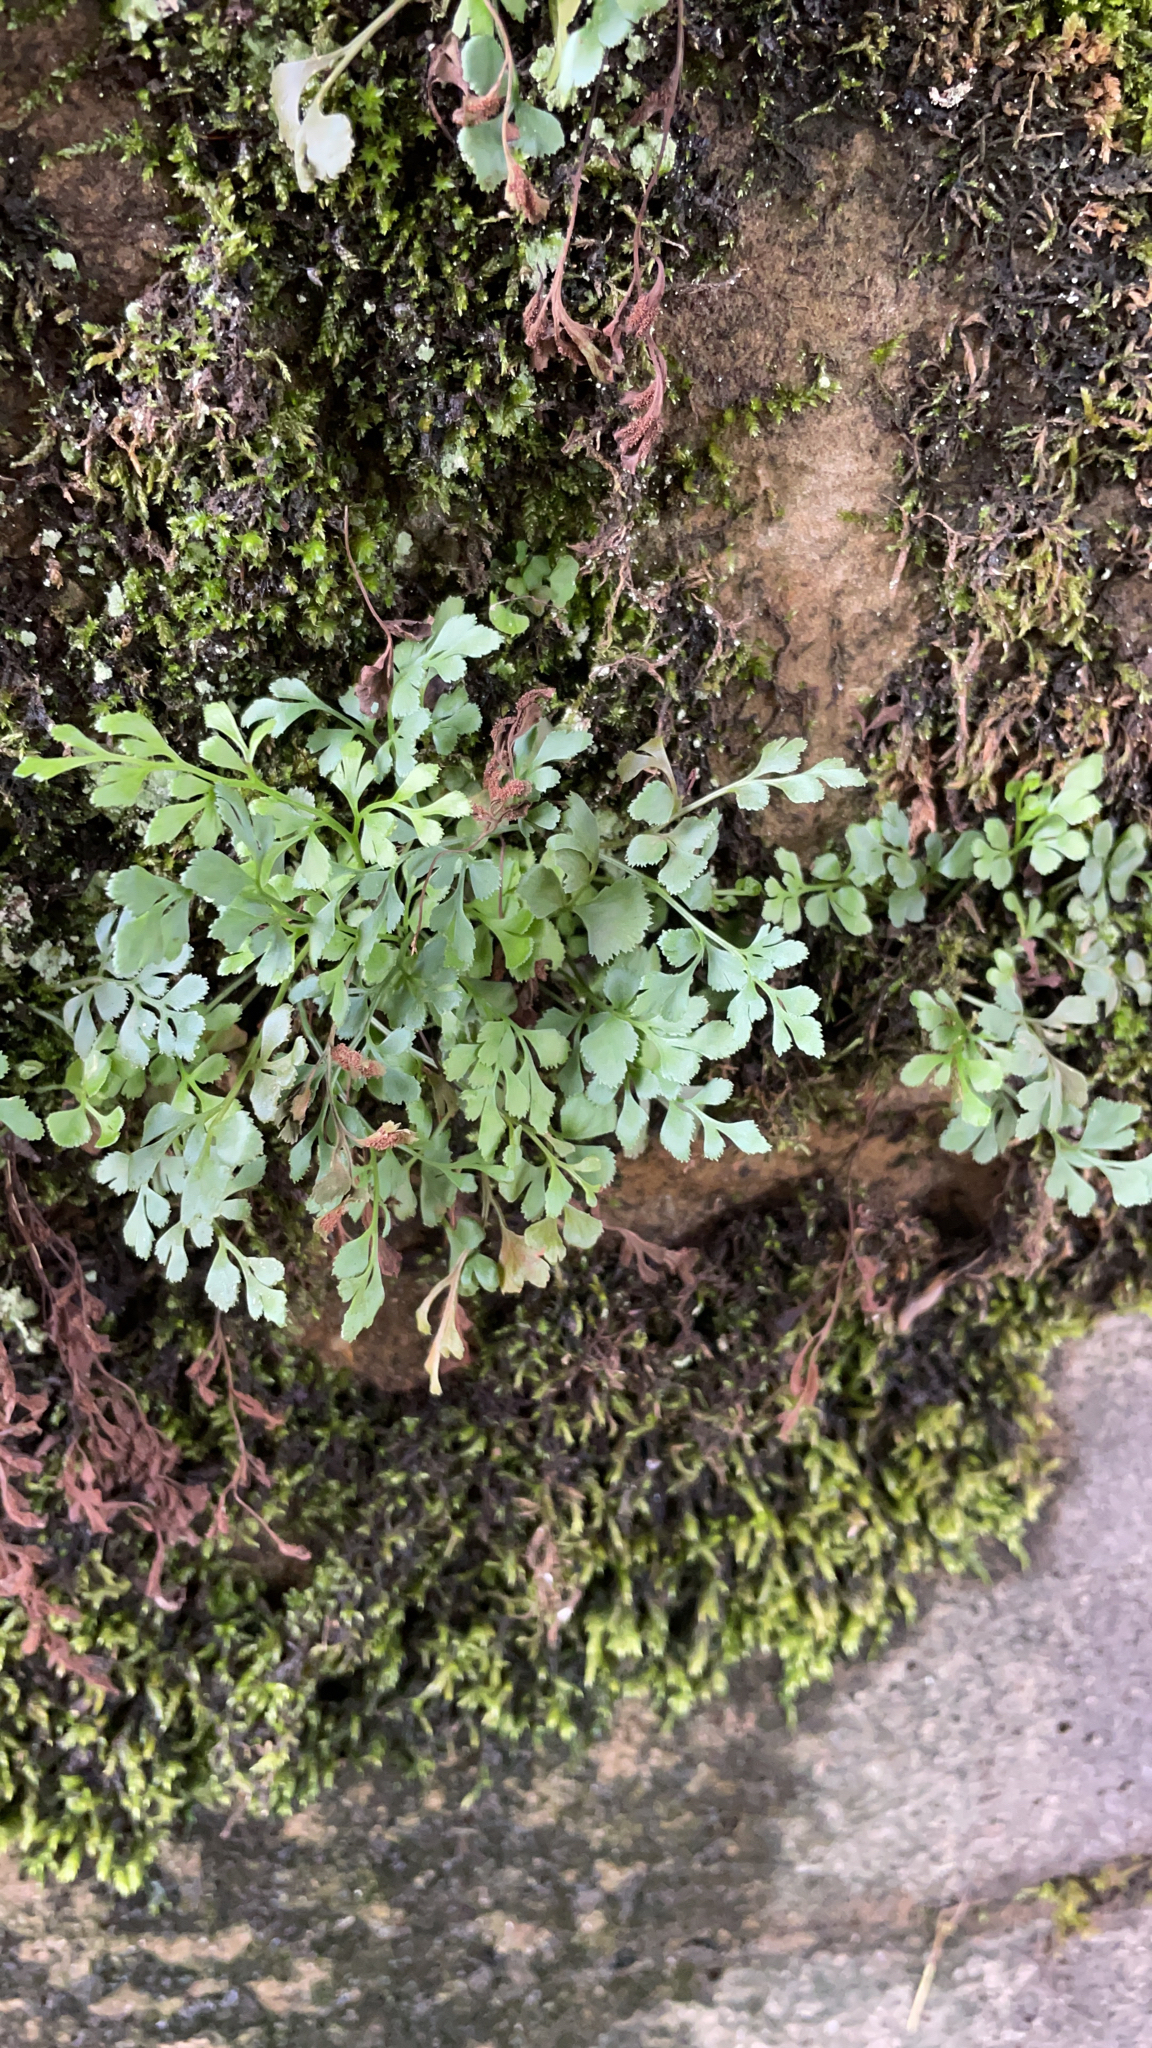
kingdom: Plantae
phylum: Tracheophyta
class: Polypodiopsida
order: Polypodiales
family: Aspleniaceae
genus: Asplenium
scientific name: Asplenium ruta-muraria
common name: Wall-rue
